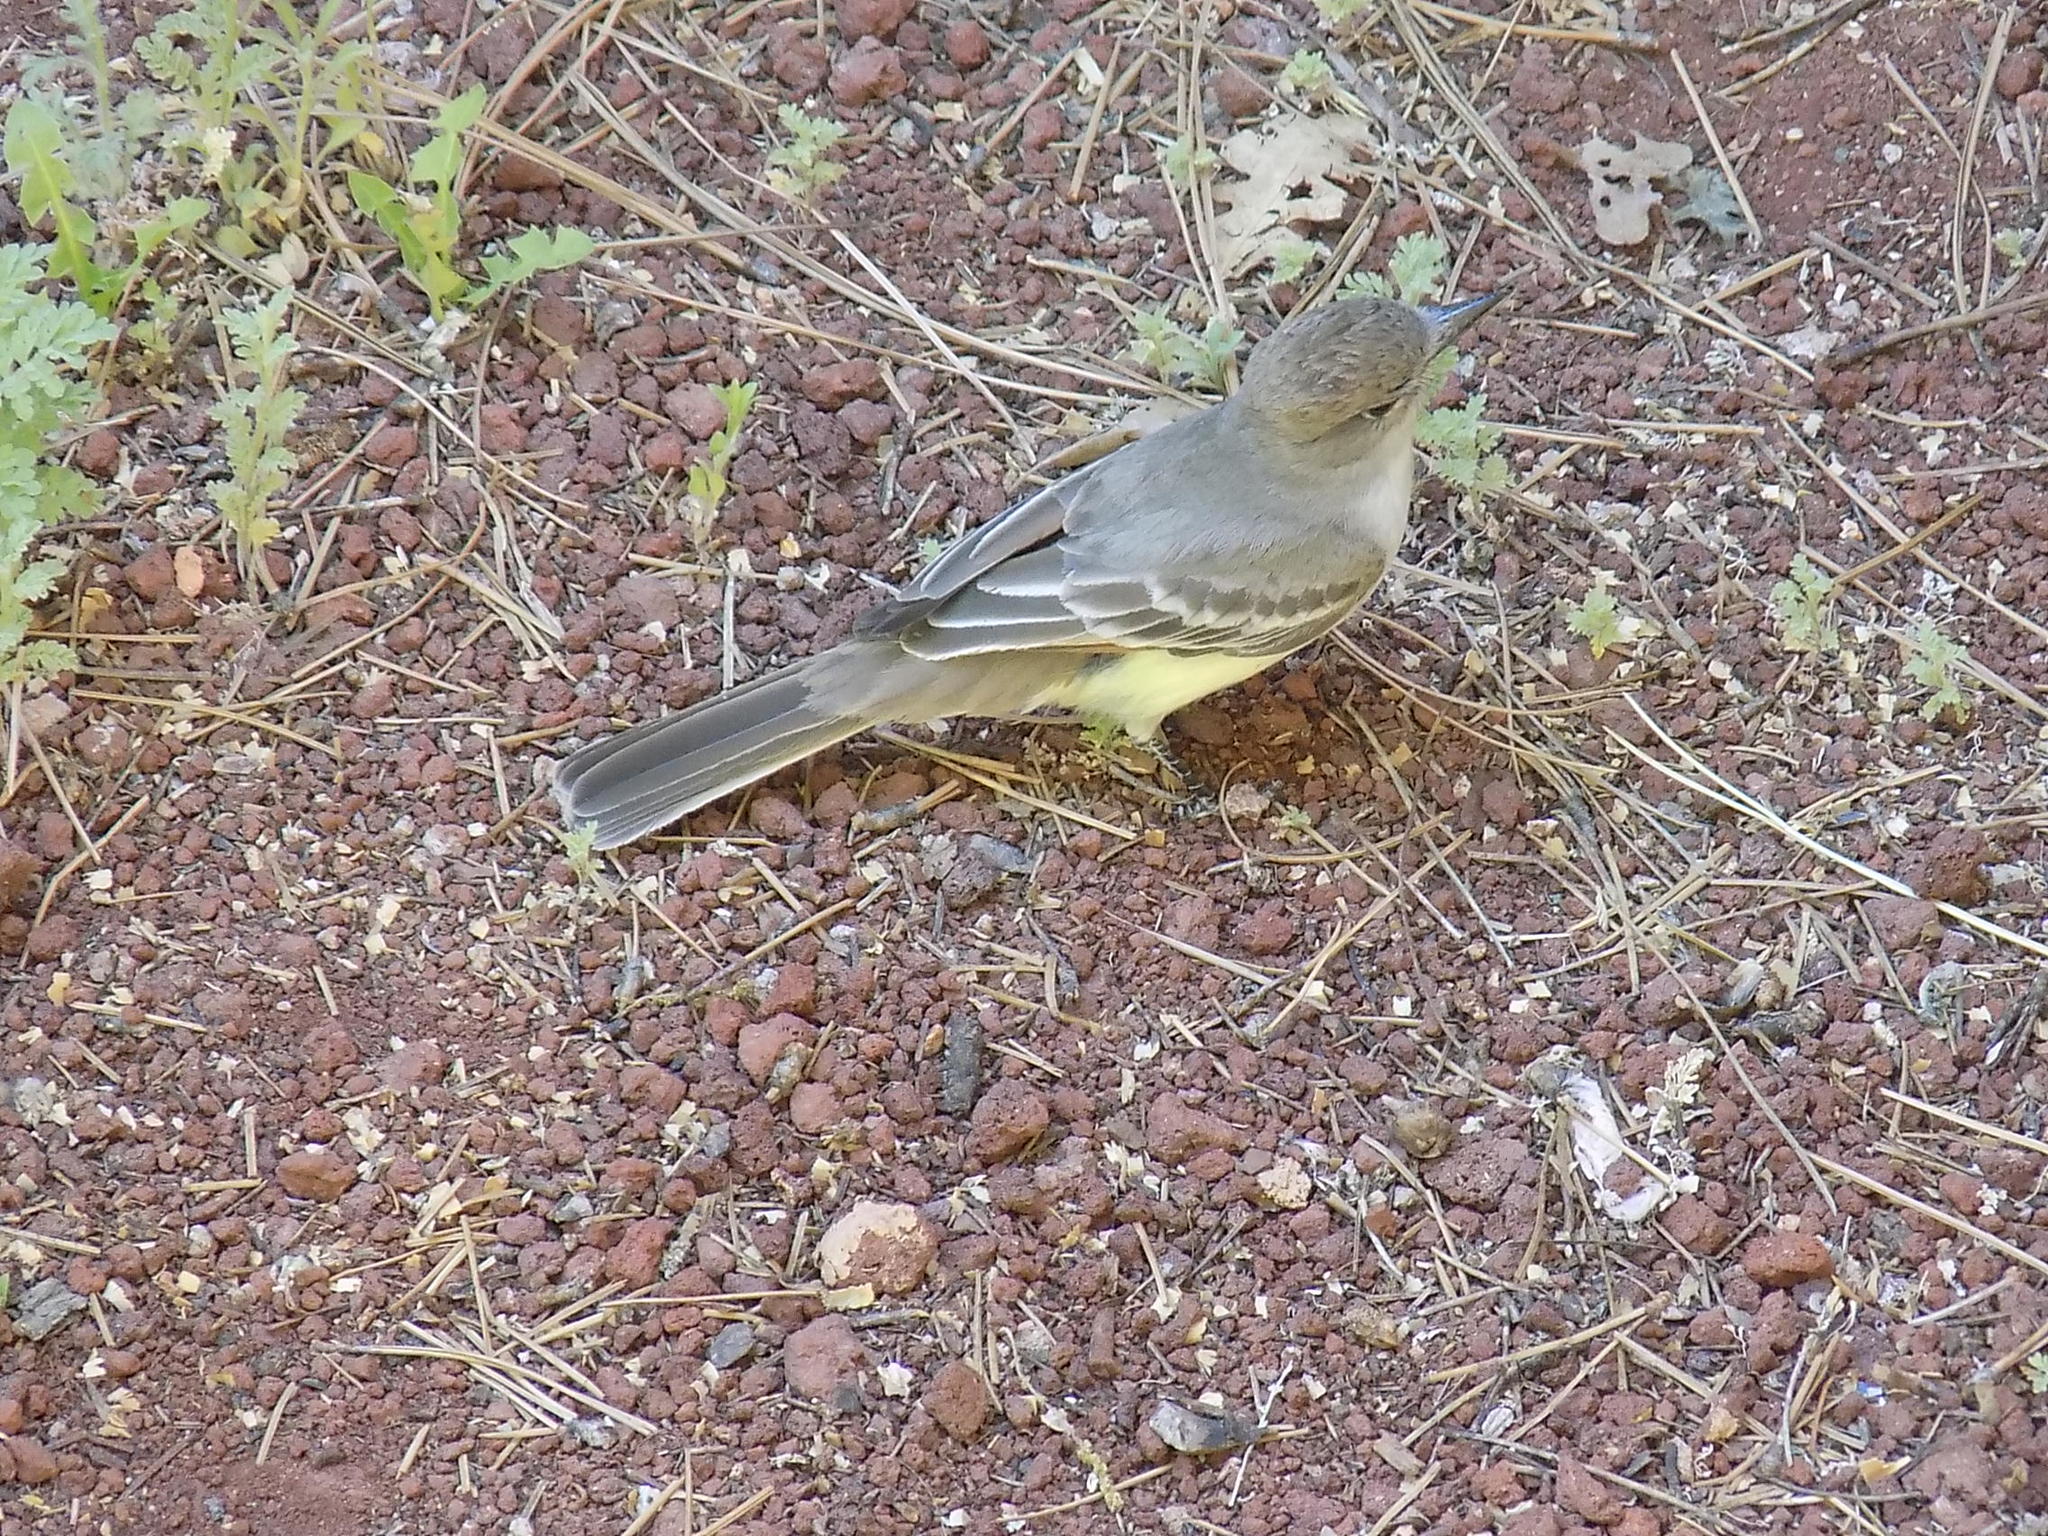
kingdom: Animalia
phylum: Chordata
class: Aves
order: Passeriformes
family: Tyrannidae
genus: Myiarchus
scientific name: Myiarchus cinerascens
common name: Ash-throated flycatcher
